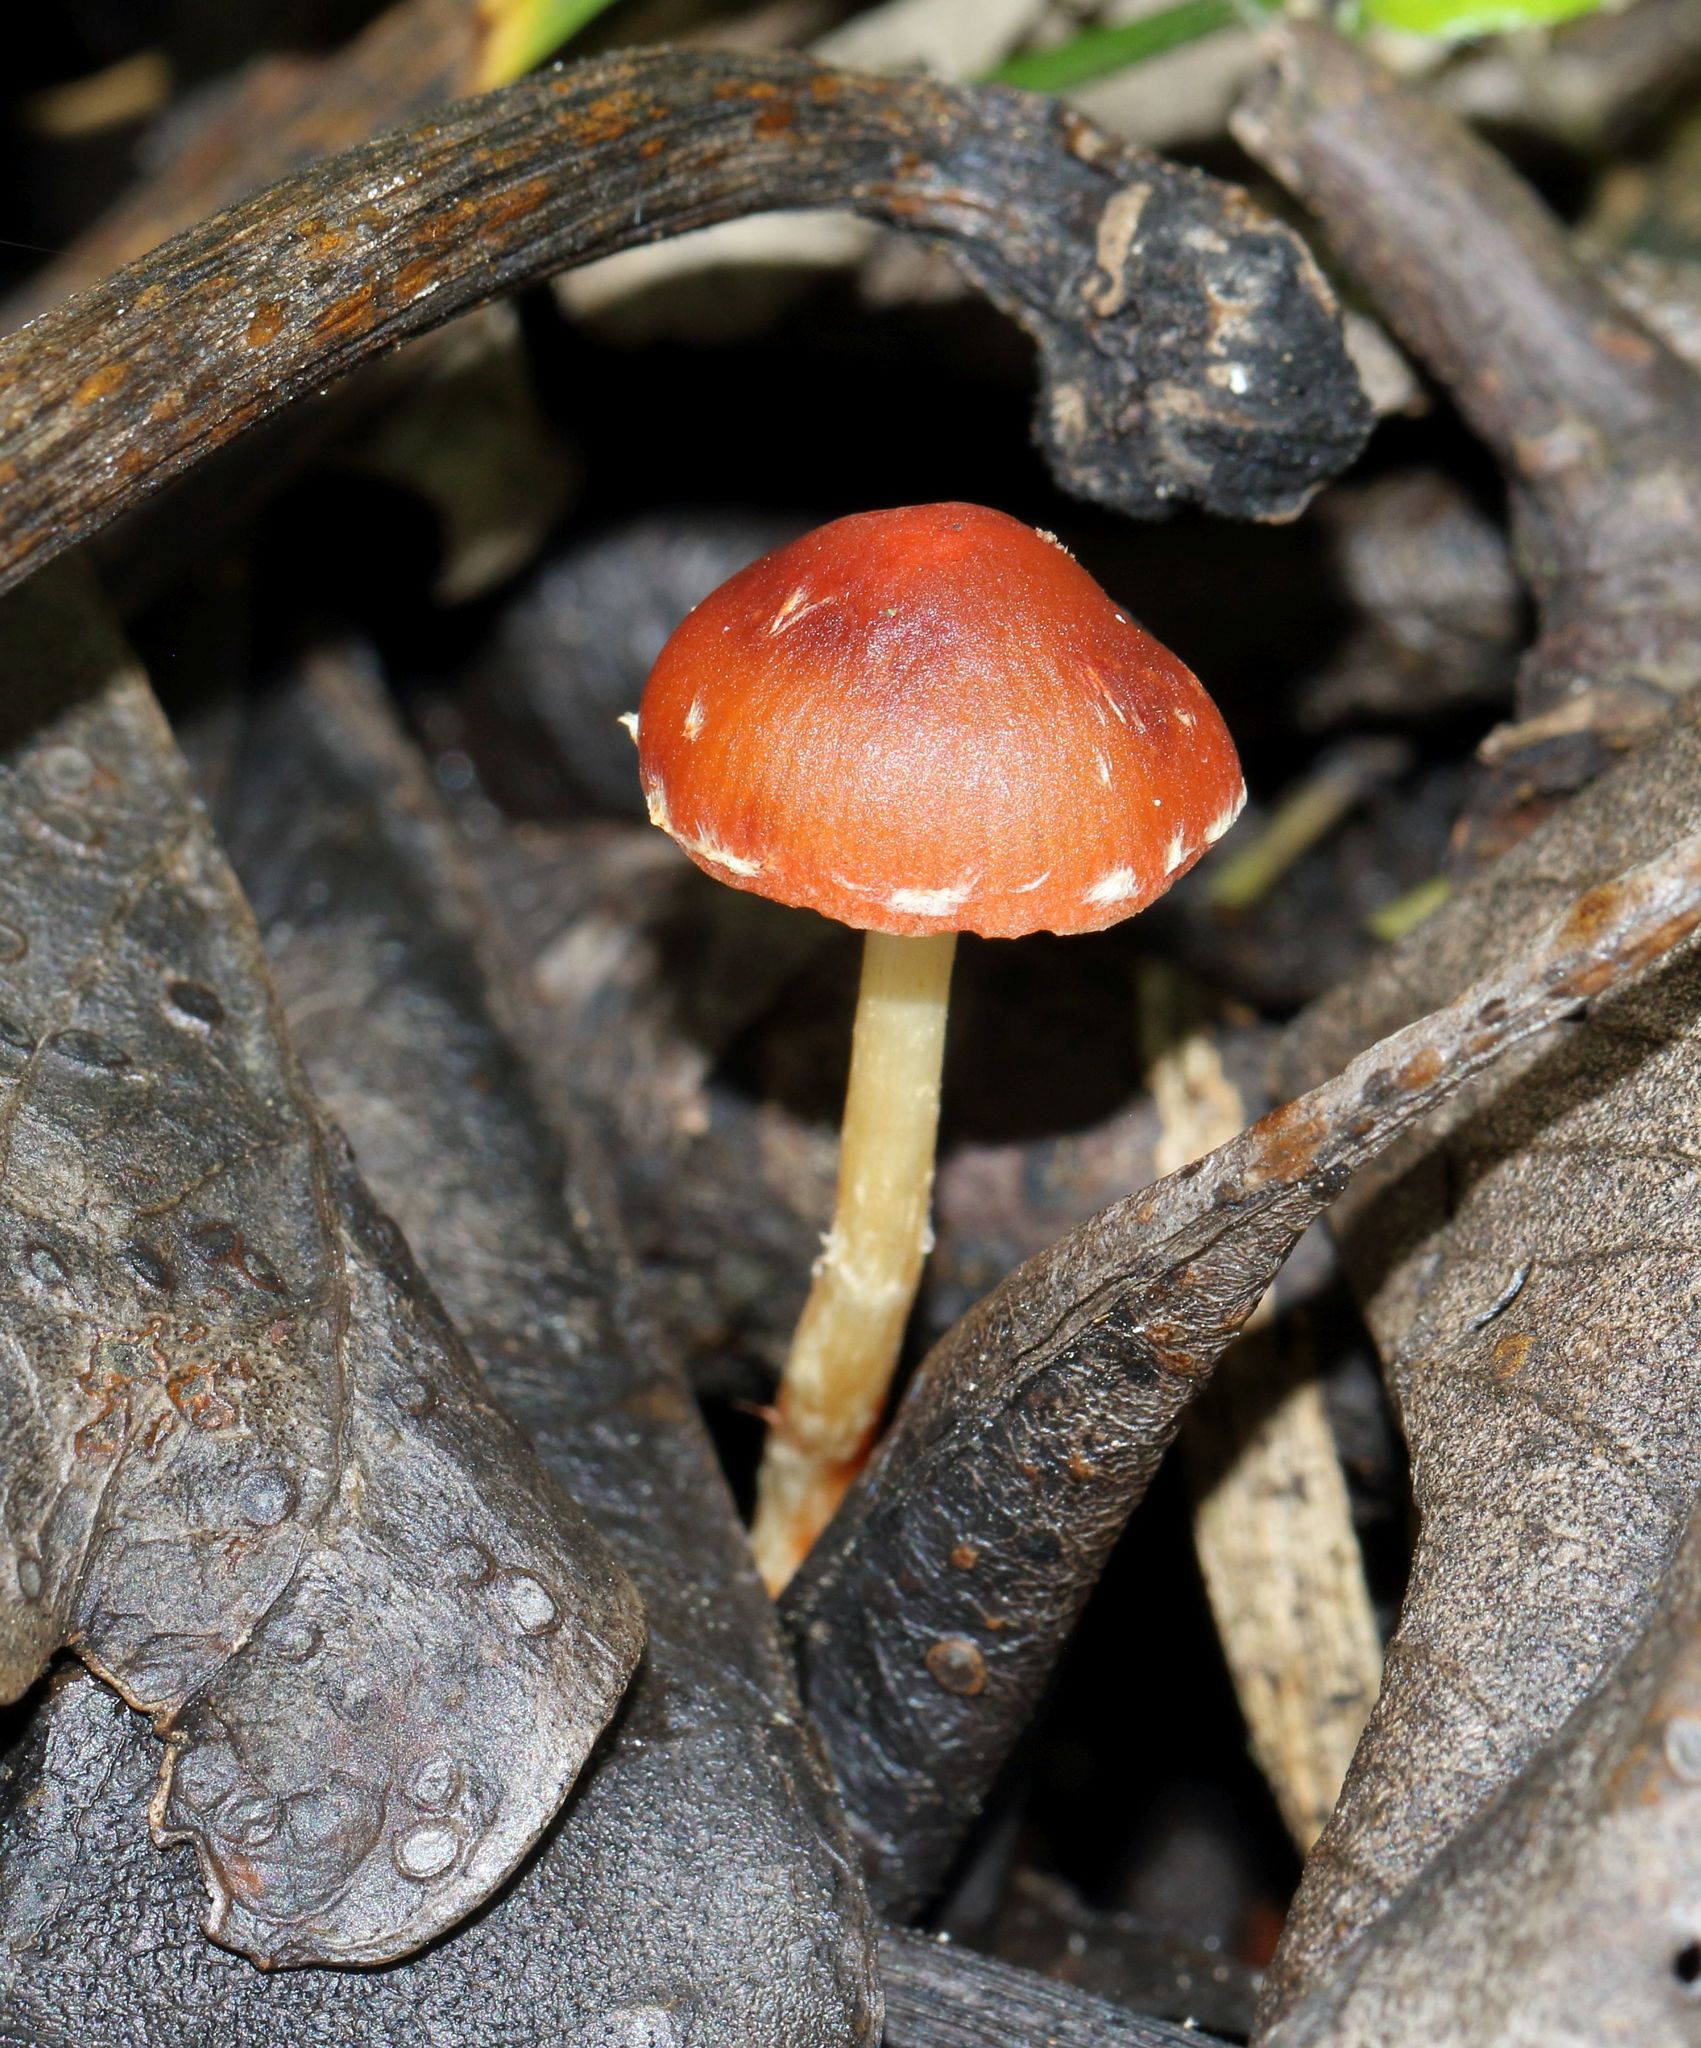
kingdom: Fungi
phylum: Basidiomycota
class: Agaricomycetes
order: Agaricales
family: Strophariaceae
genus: Leratiomyces
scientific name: Leratiomyces ceres
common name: Redlead roundhead
